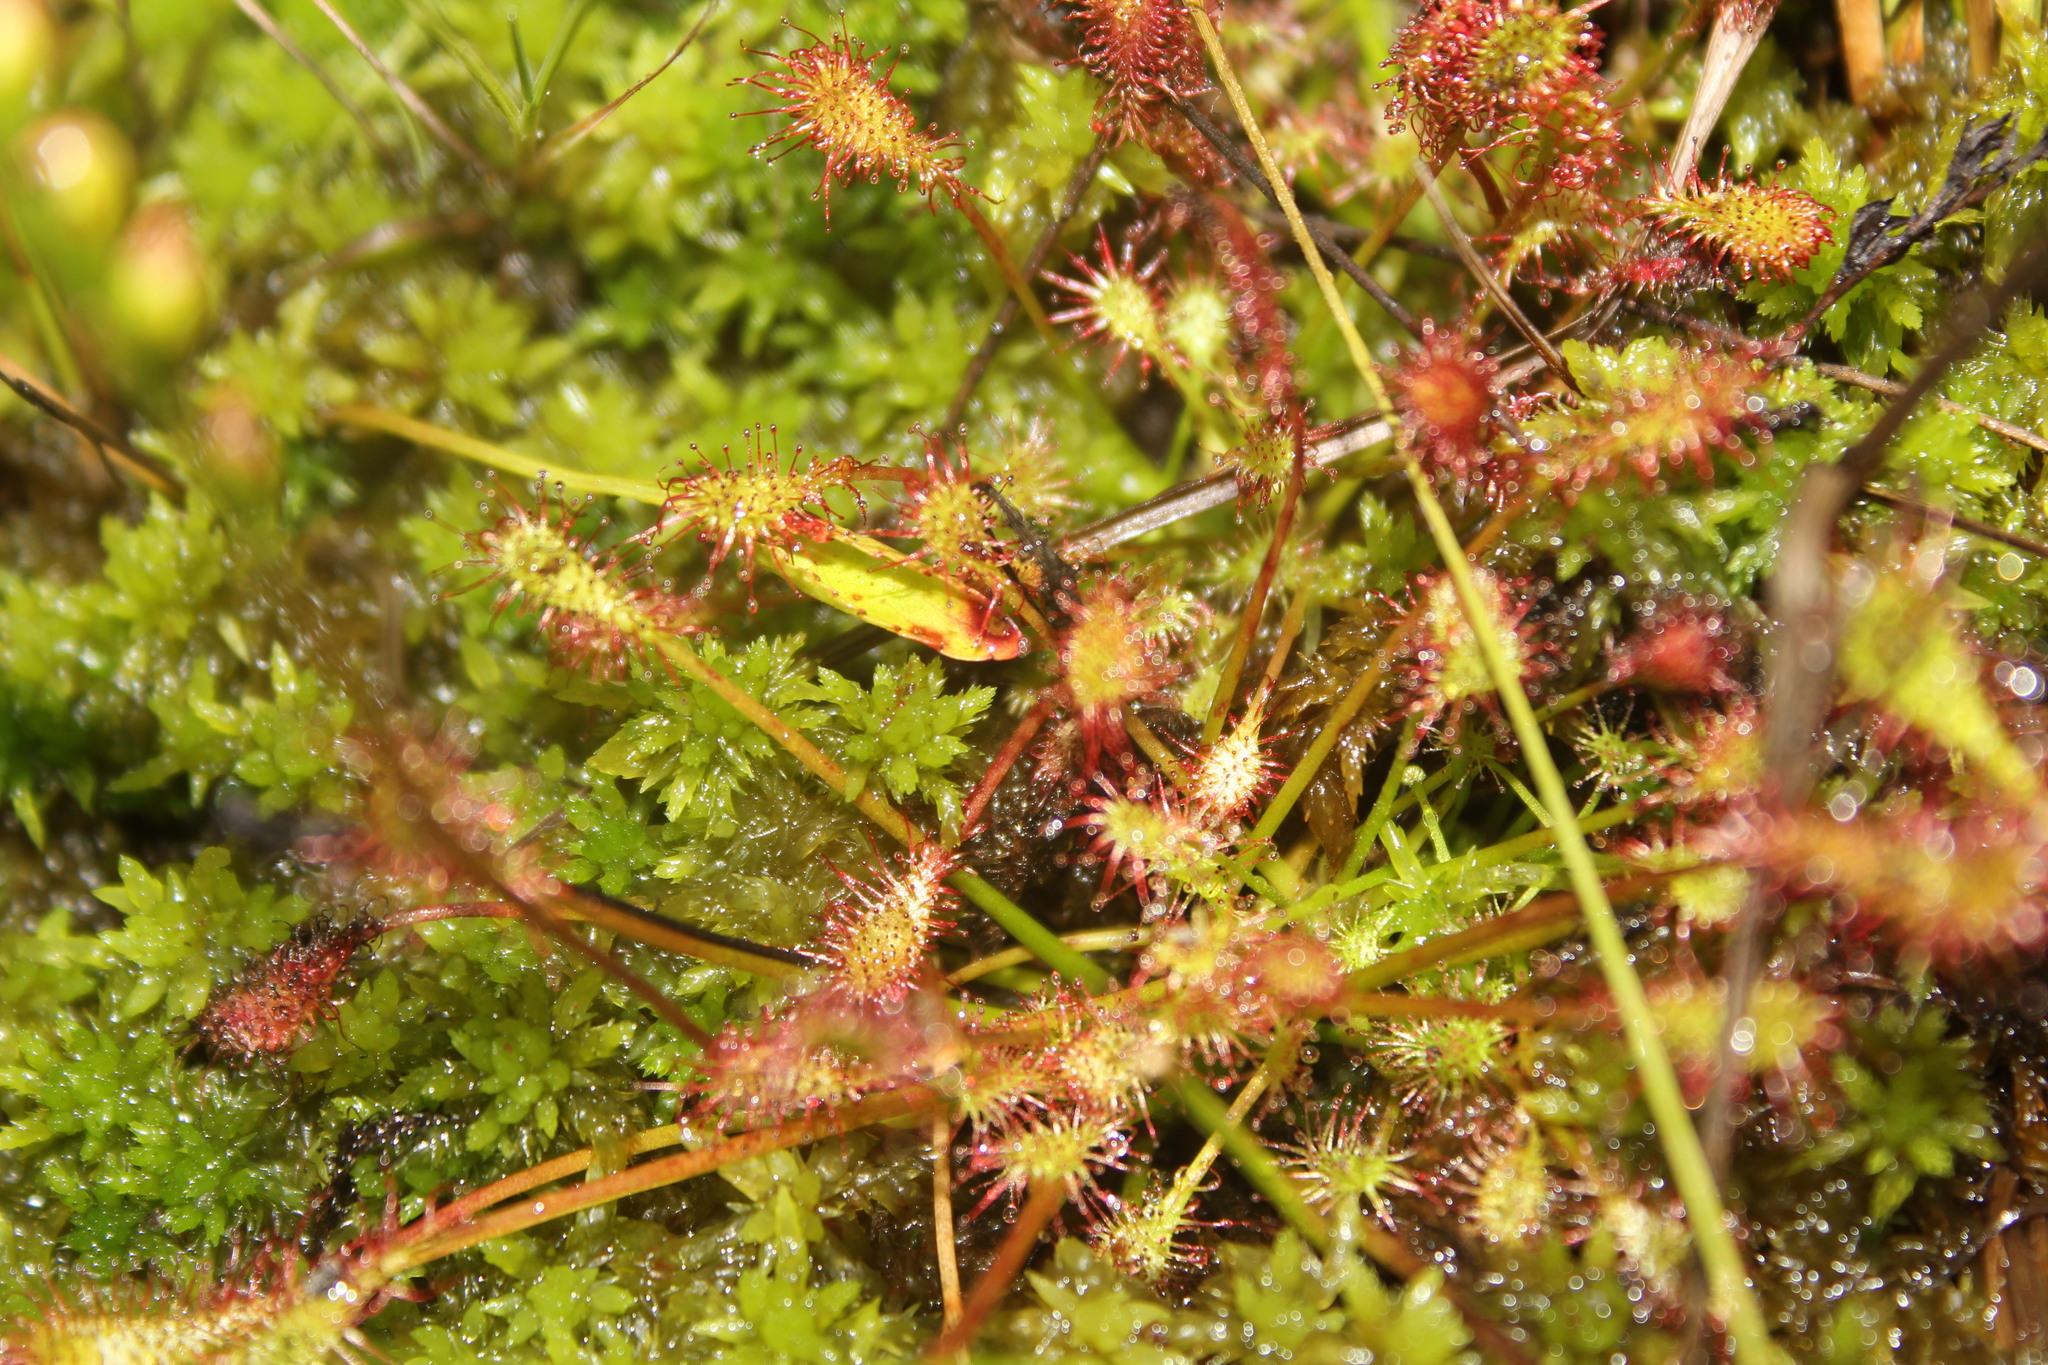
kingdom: Plantae
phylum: Tracheophyta
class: Magnoliopsida
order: Caryophyllales
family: Droseraceae
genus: Drosera
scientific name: Drosera intermedia
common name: Oblong-leaved sundew
